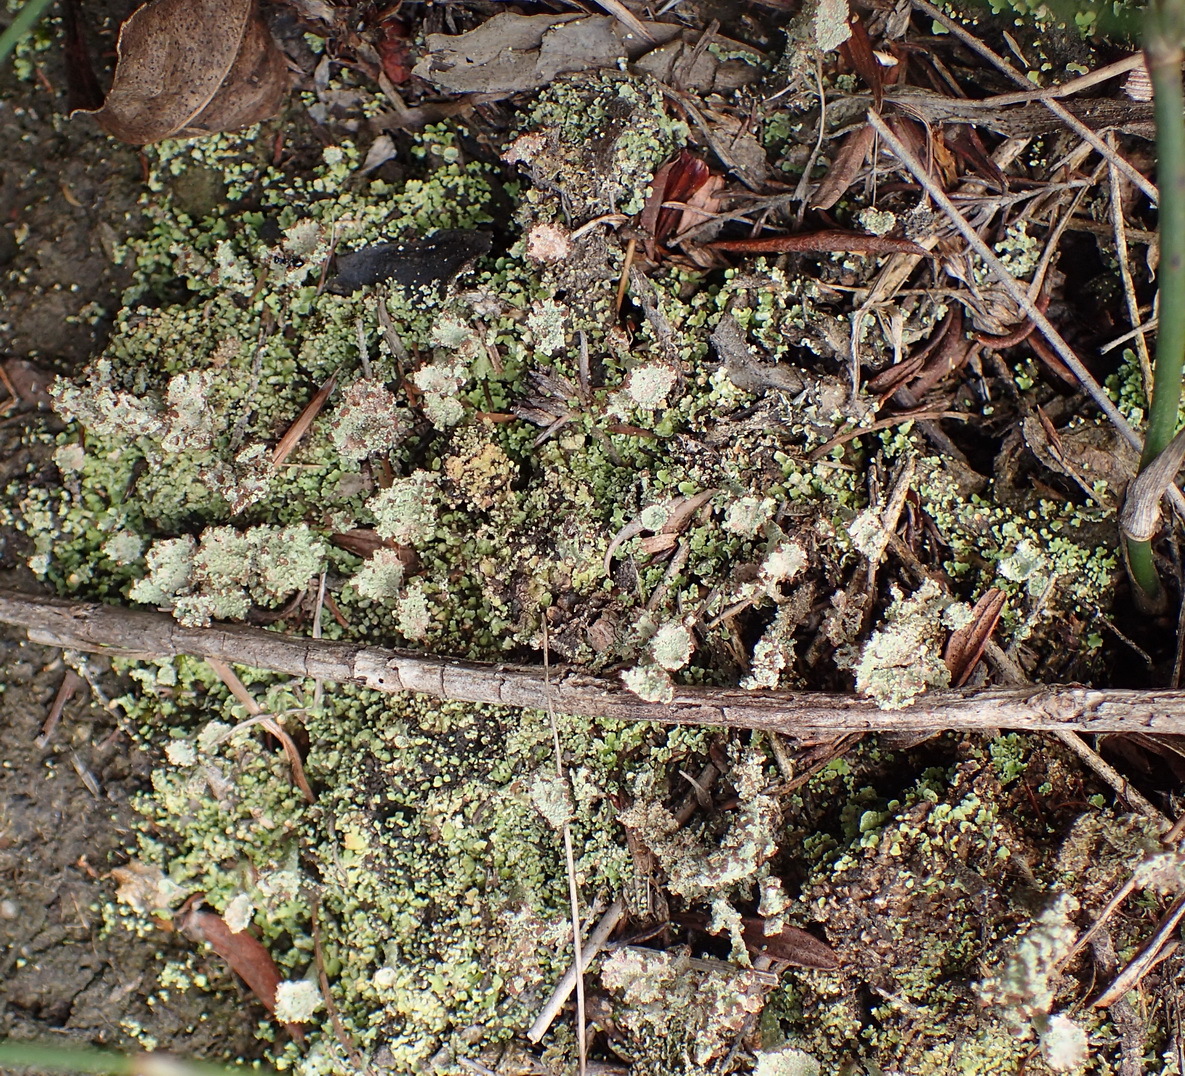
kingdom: Fungi
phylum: Ascomycota
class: Lecanoromycetes
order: Lecanorales
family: Cladoniaceae
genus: Cladonia
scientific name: Cladonia pyxidata
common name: Pebbled pixie cup
